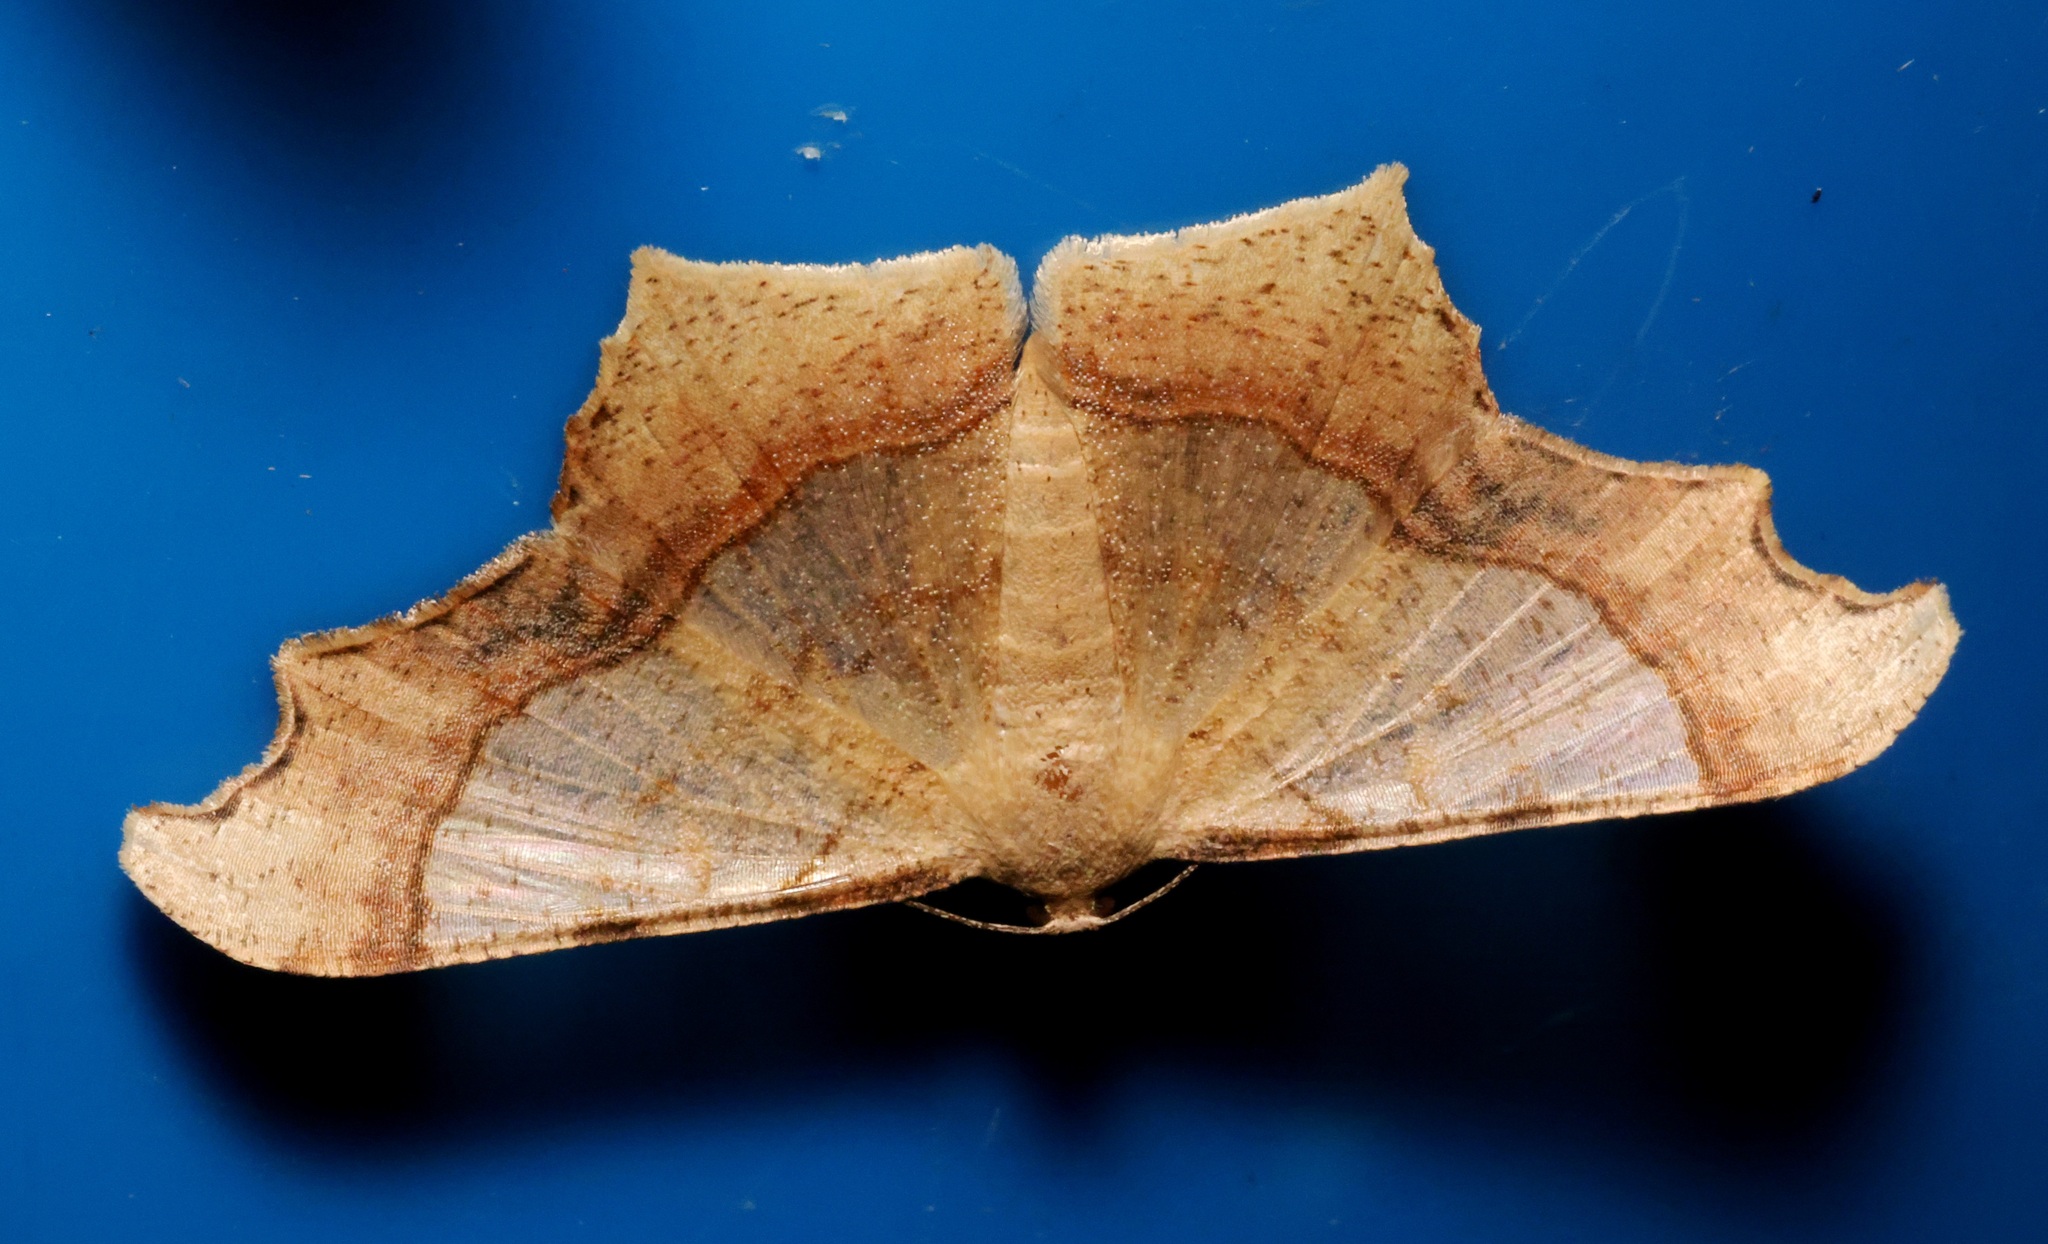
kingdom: Animalia
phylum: Arthropoda
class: Insecta
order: Lepidoptera
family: Geometridae
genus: Zeheba
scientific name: Zeheba aureata
